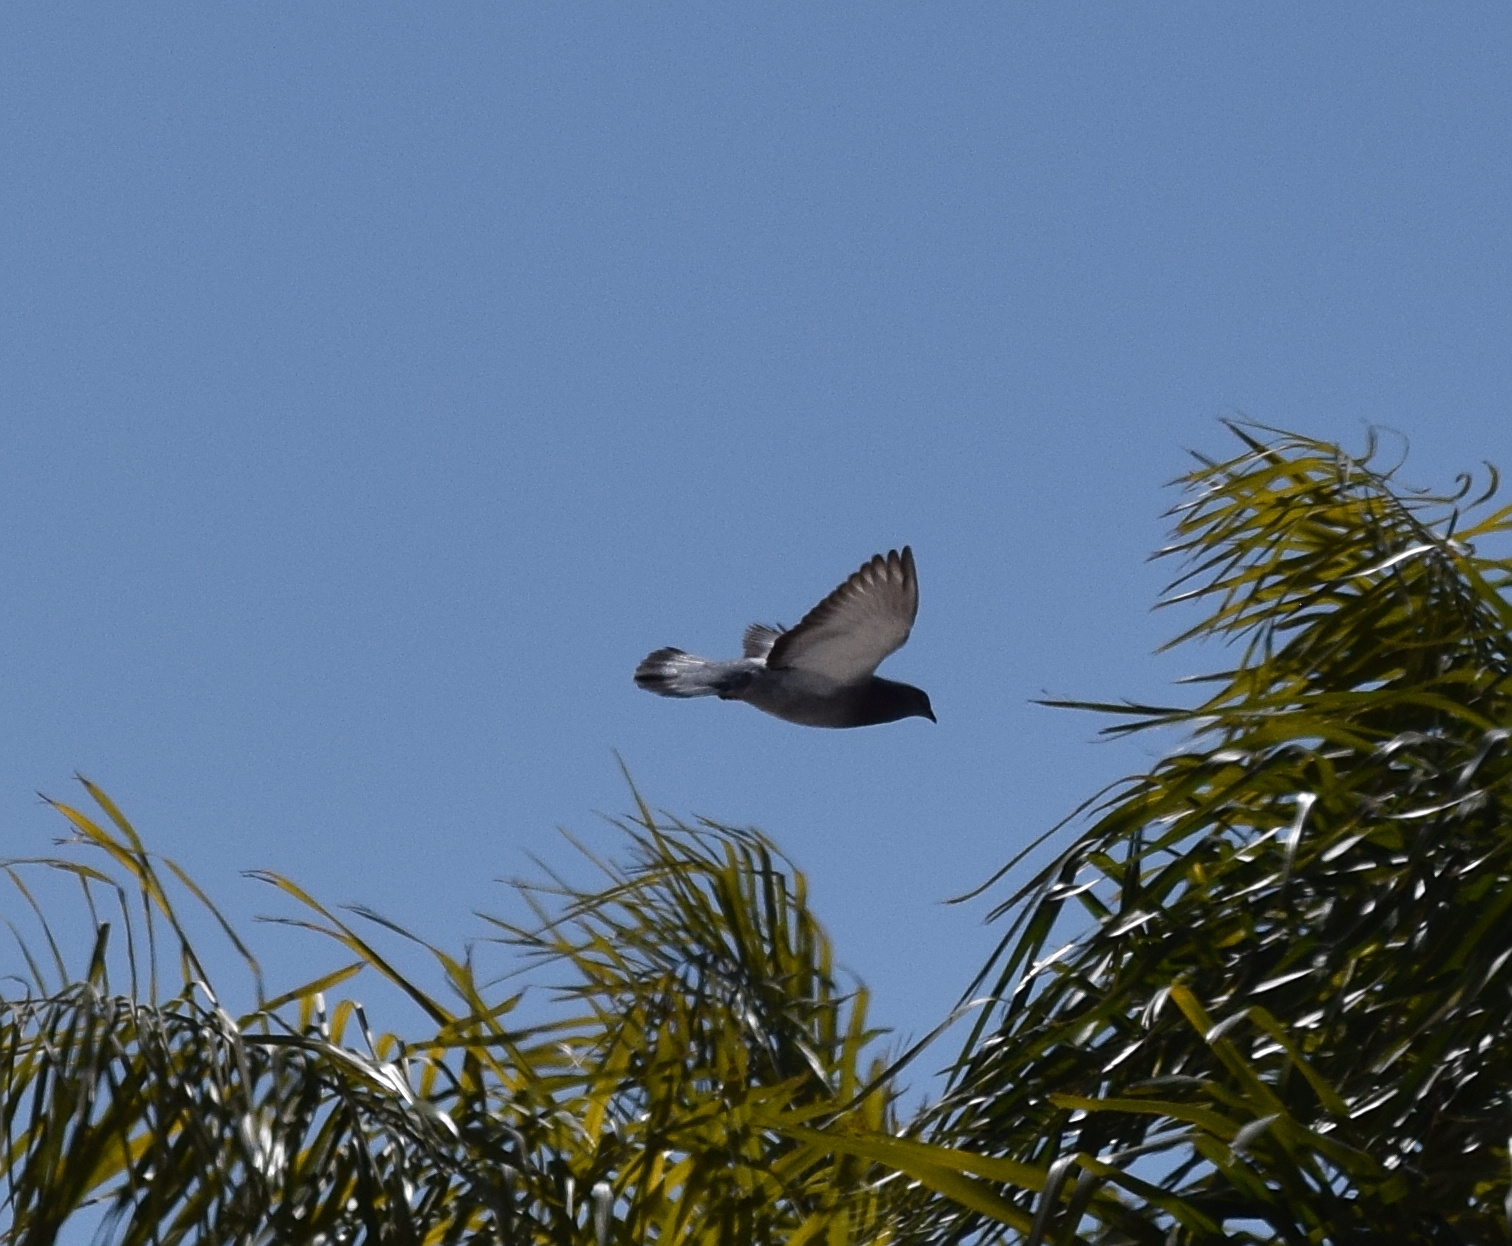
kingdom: Animalia
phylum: Chordata
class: Aves
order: Columbiformes
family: Columbidae
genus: Columba
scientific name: Columba livia
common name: Rock pigeon
